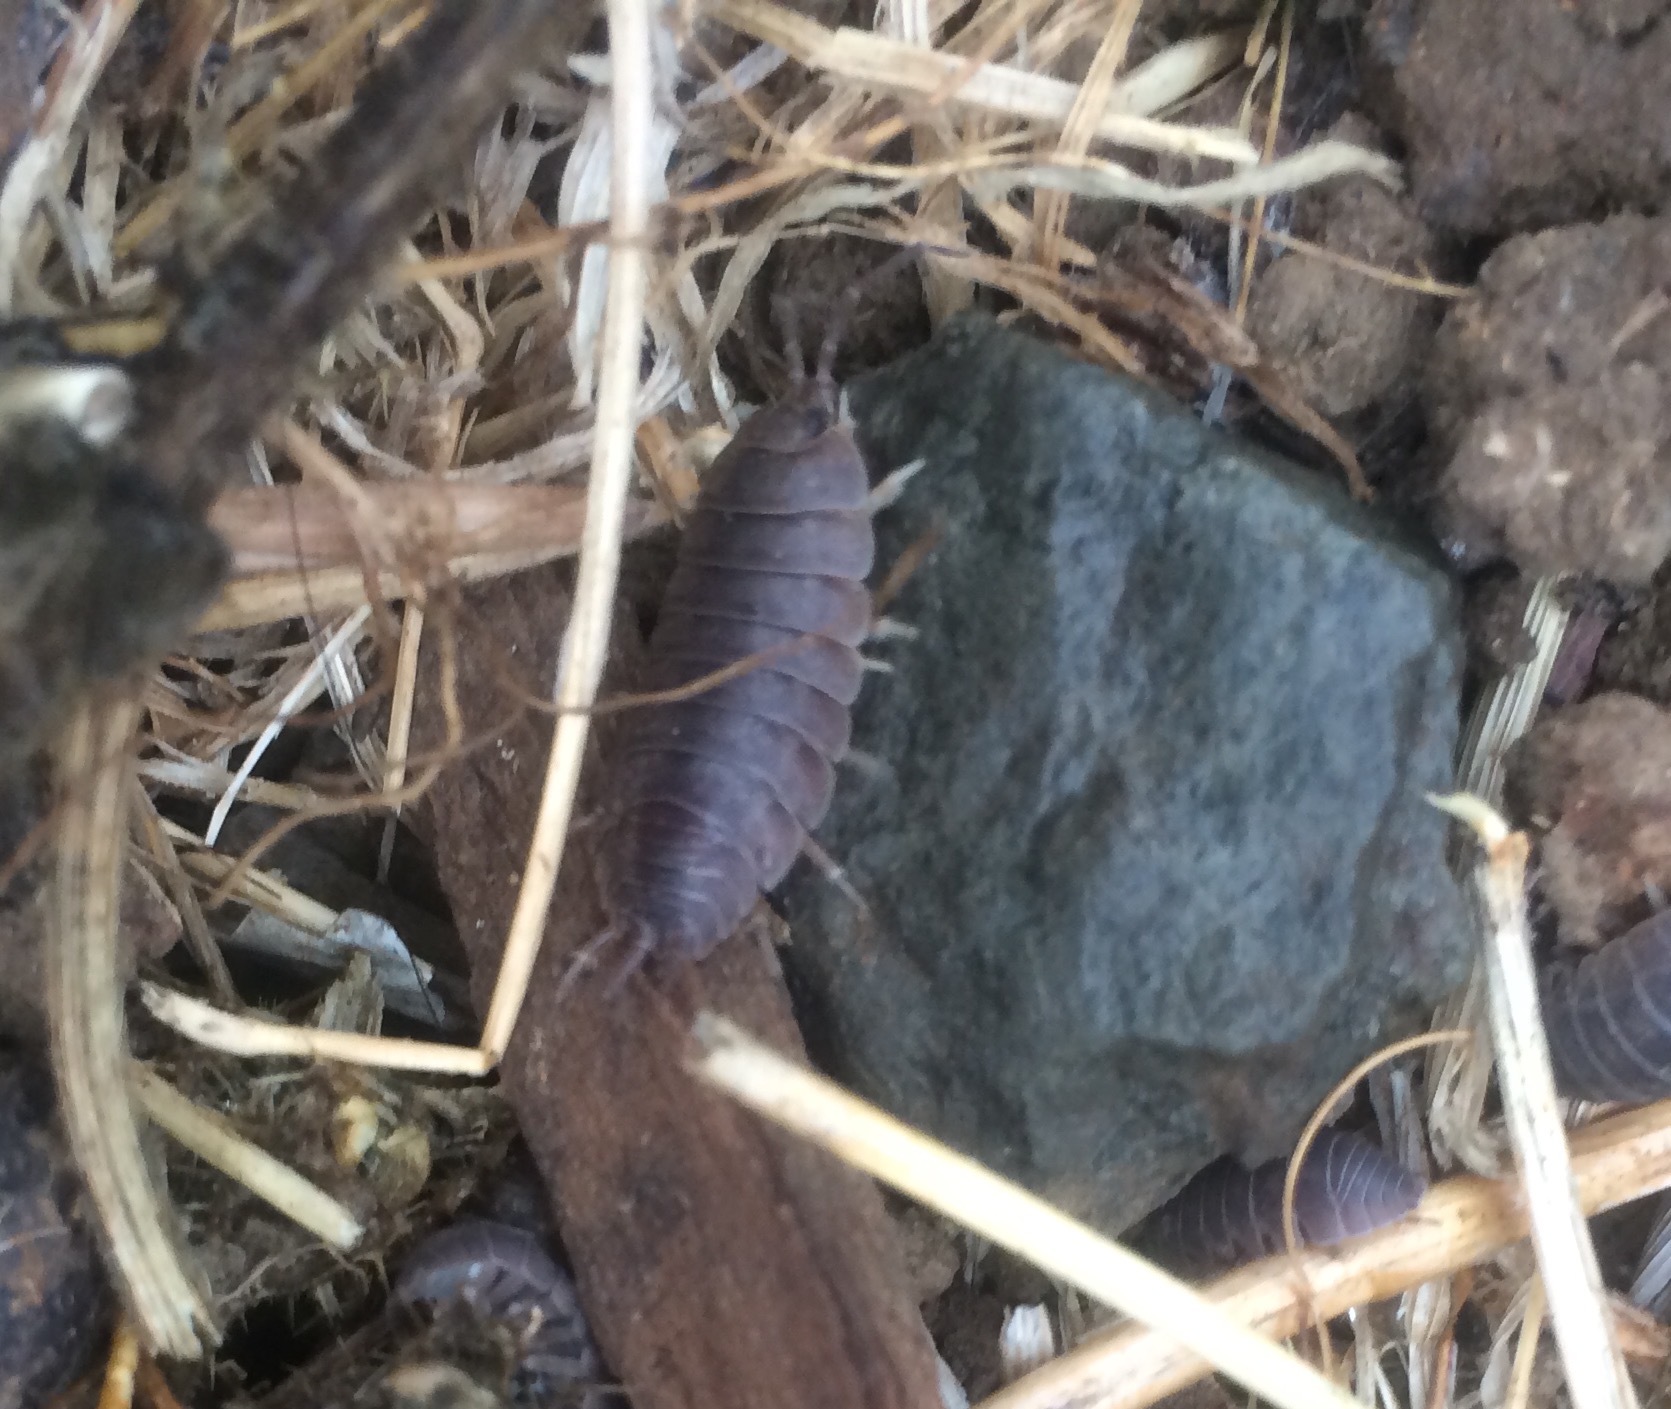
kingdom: Animalia
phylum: Arthropoda
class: Malacostraca
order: Isopoda
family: Porcellionidae
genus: Porcellio
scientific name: Porcellio laevis
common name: Swift woodlouse
